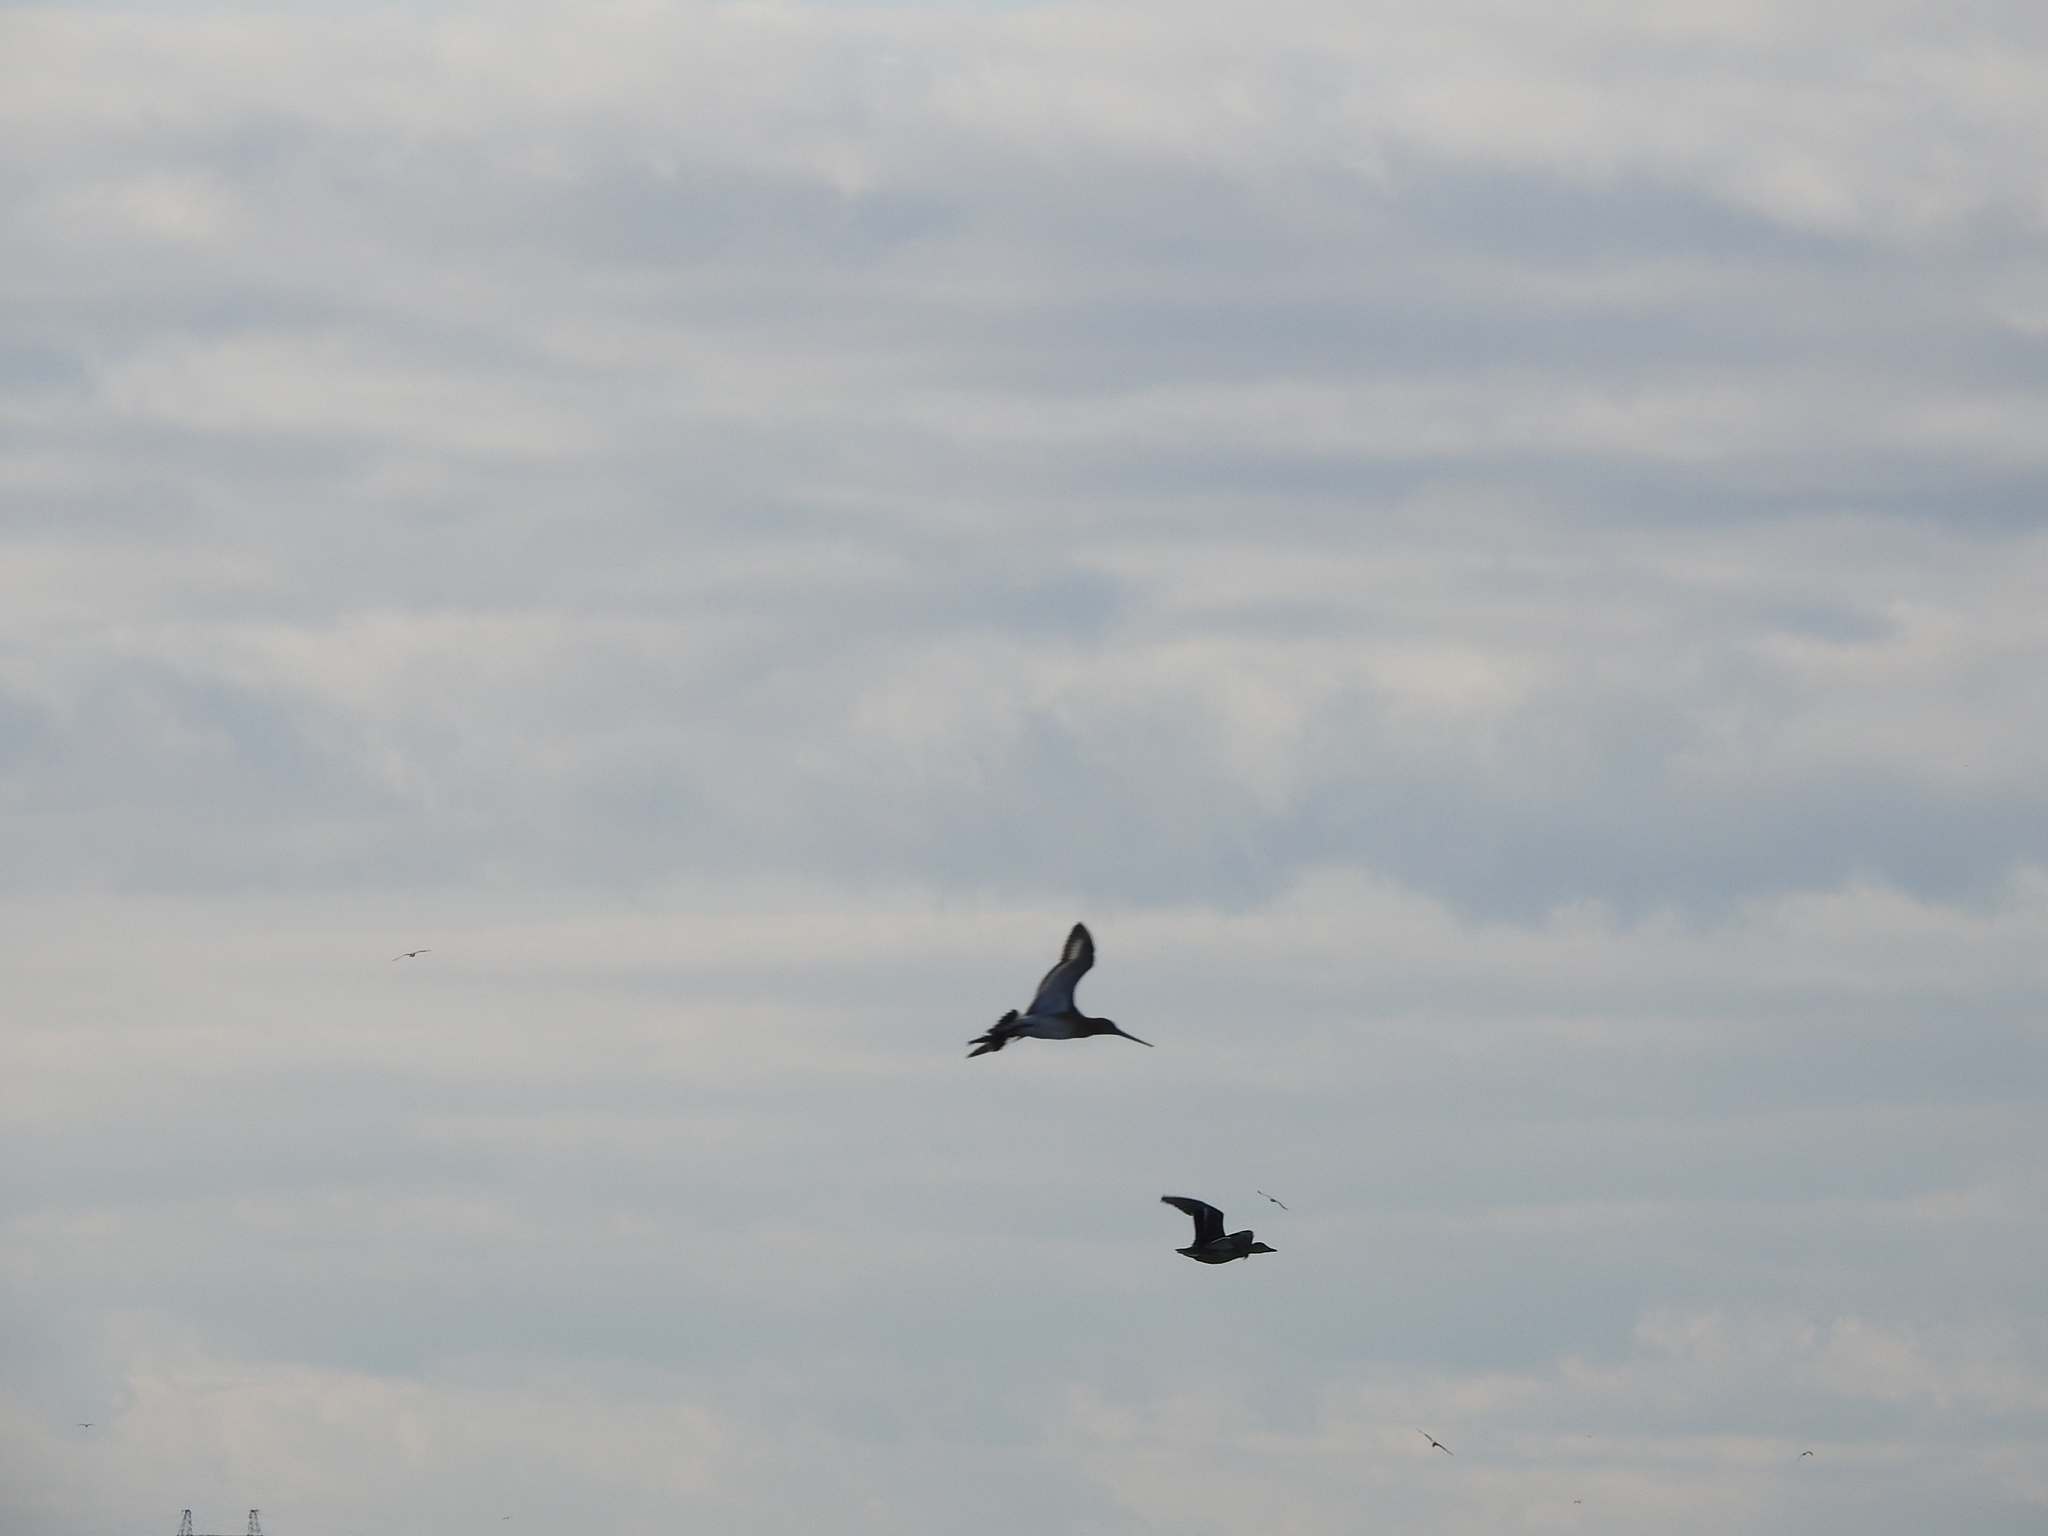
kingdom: Animalia
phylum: Chordata
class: Aves
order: Charadriiformes
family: Scolopacidae
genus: Limosa
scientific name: Limosa limosa
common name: Black-tailed godwit
